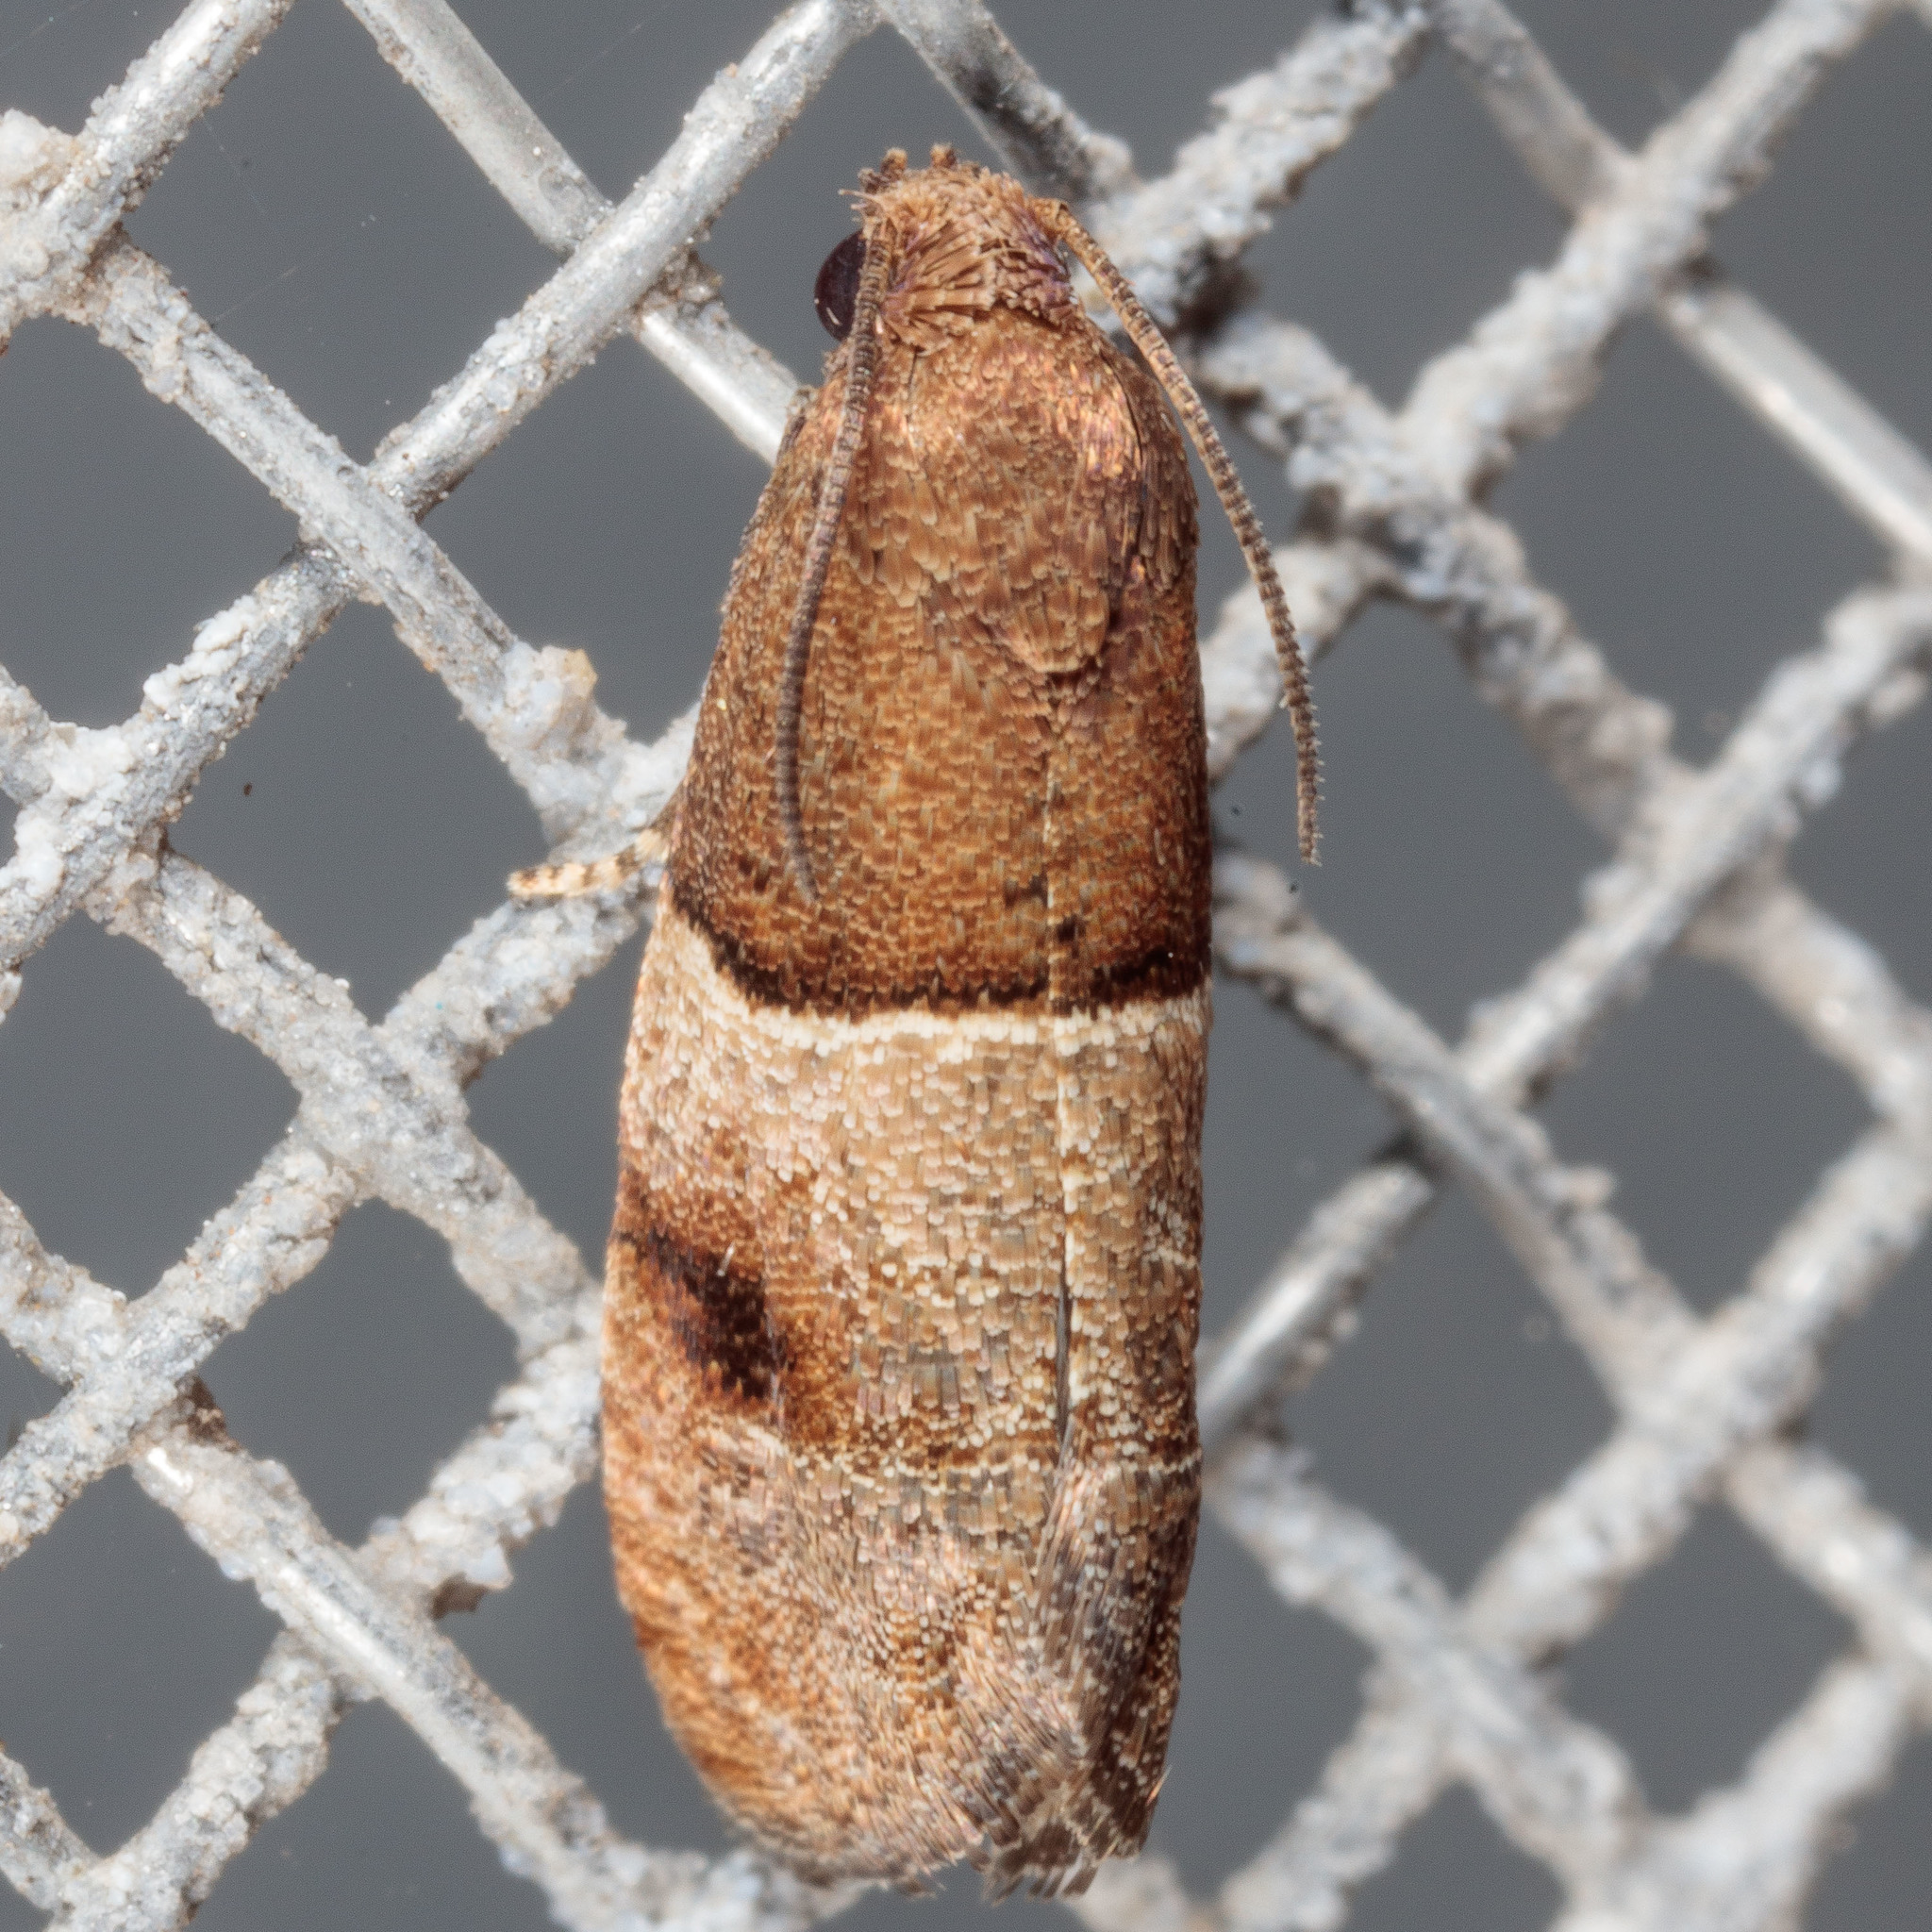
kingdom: Animalia
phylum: Arthropoda
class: Insecta
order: Lepidoptera
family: Tortricidae
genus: Larisa
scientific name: Larisa subsolana
